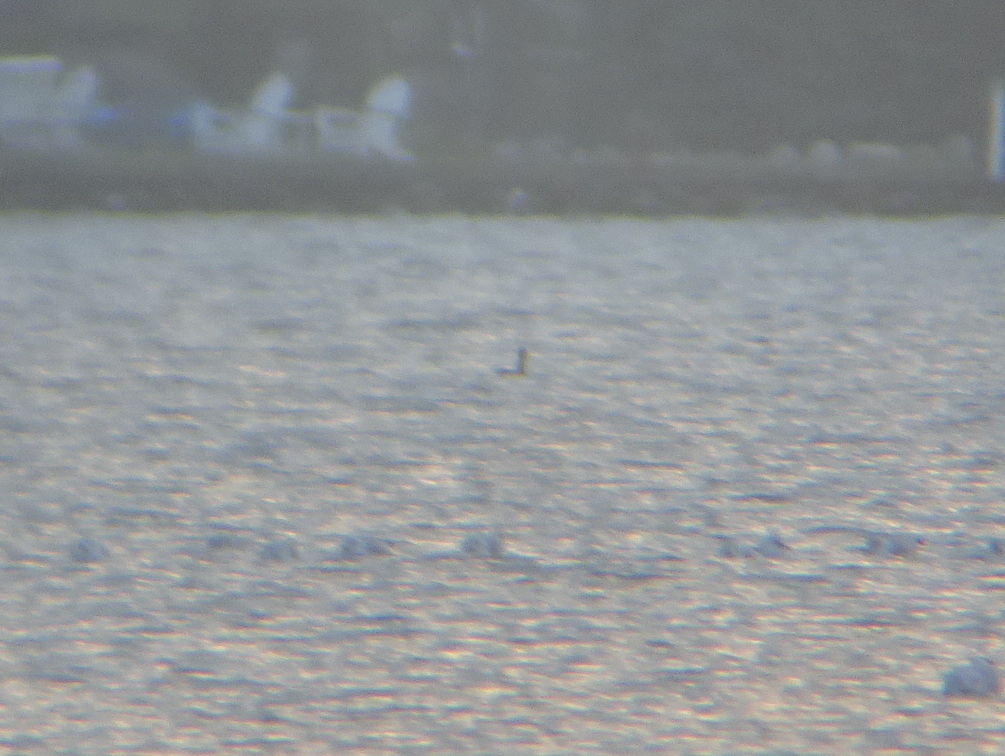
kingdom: Animalia
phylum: Chordata
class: Aves
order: Podicipediformes
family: Podicipedidae
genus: Podiceps
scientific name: Podiceps grisegena
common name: Red-necked grebe
